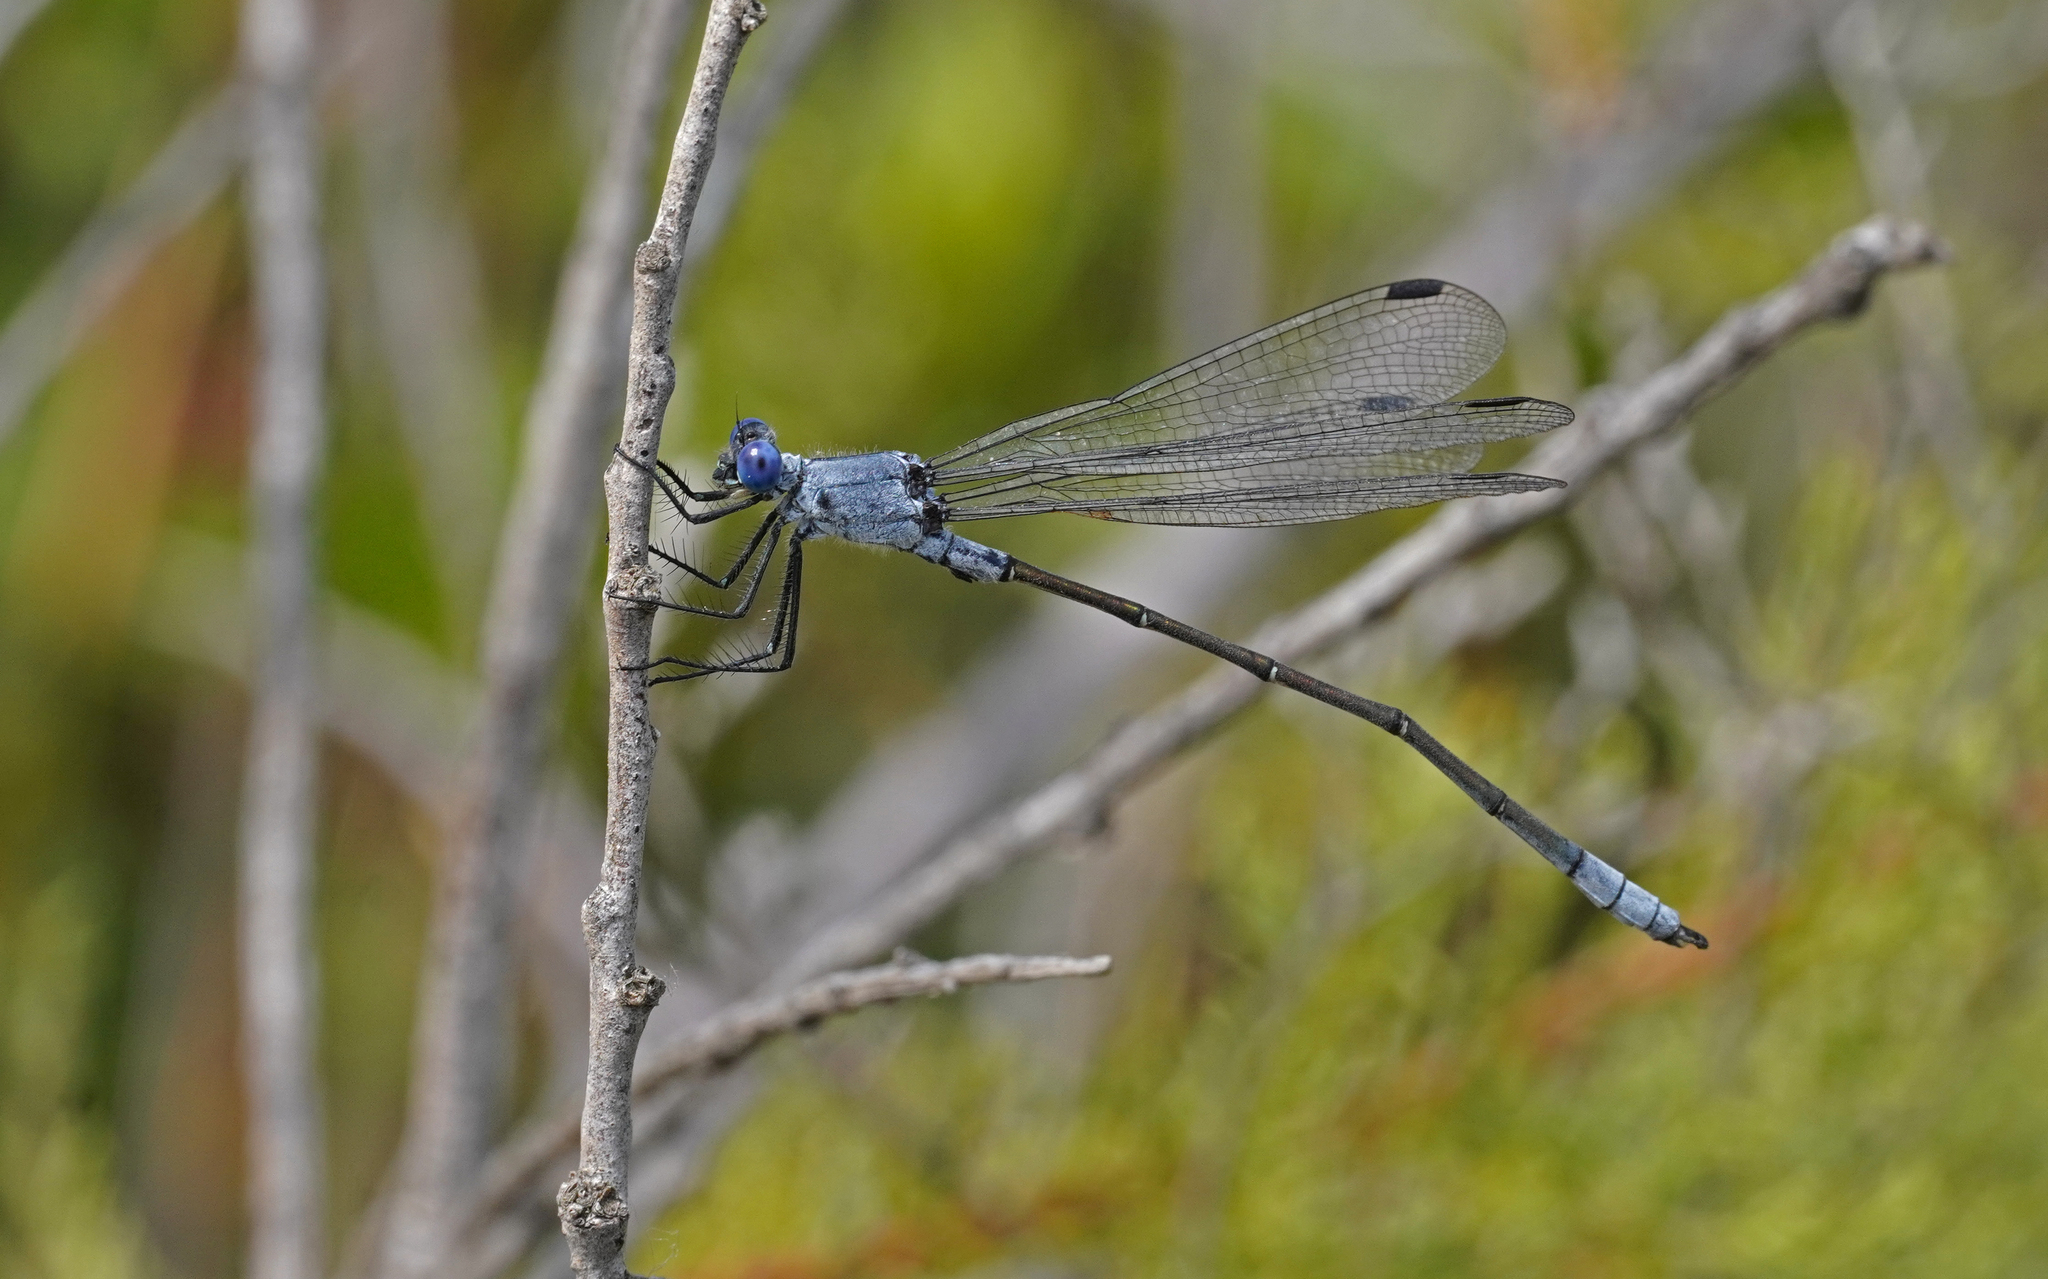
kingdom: Animalia
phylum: Arthropoda
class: Insecta
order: Odonata
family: Lestidae
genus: Lestes
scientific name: Lestes macrostigma
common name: Dark spreadwing
